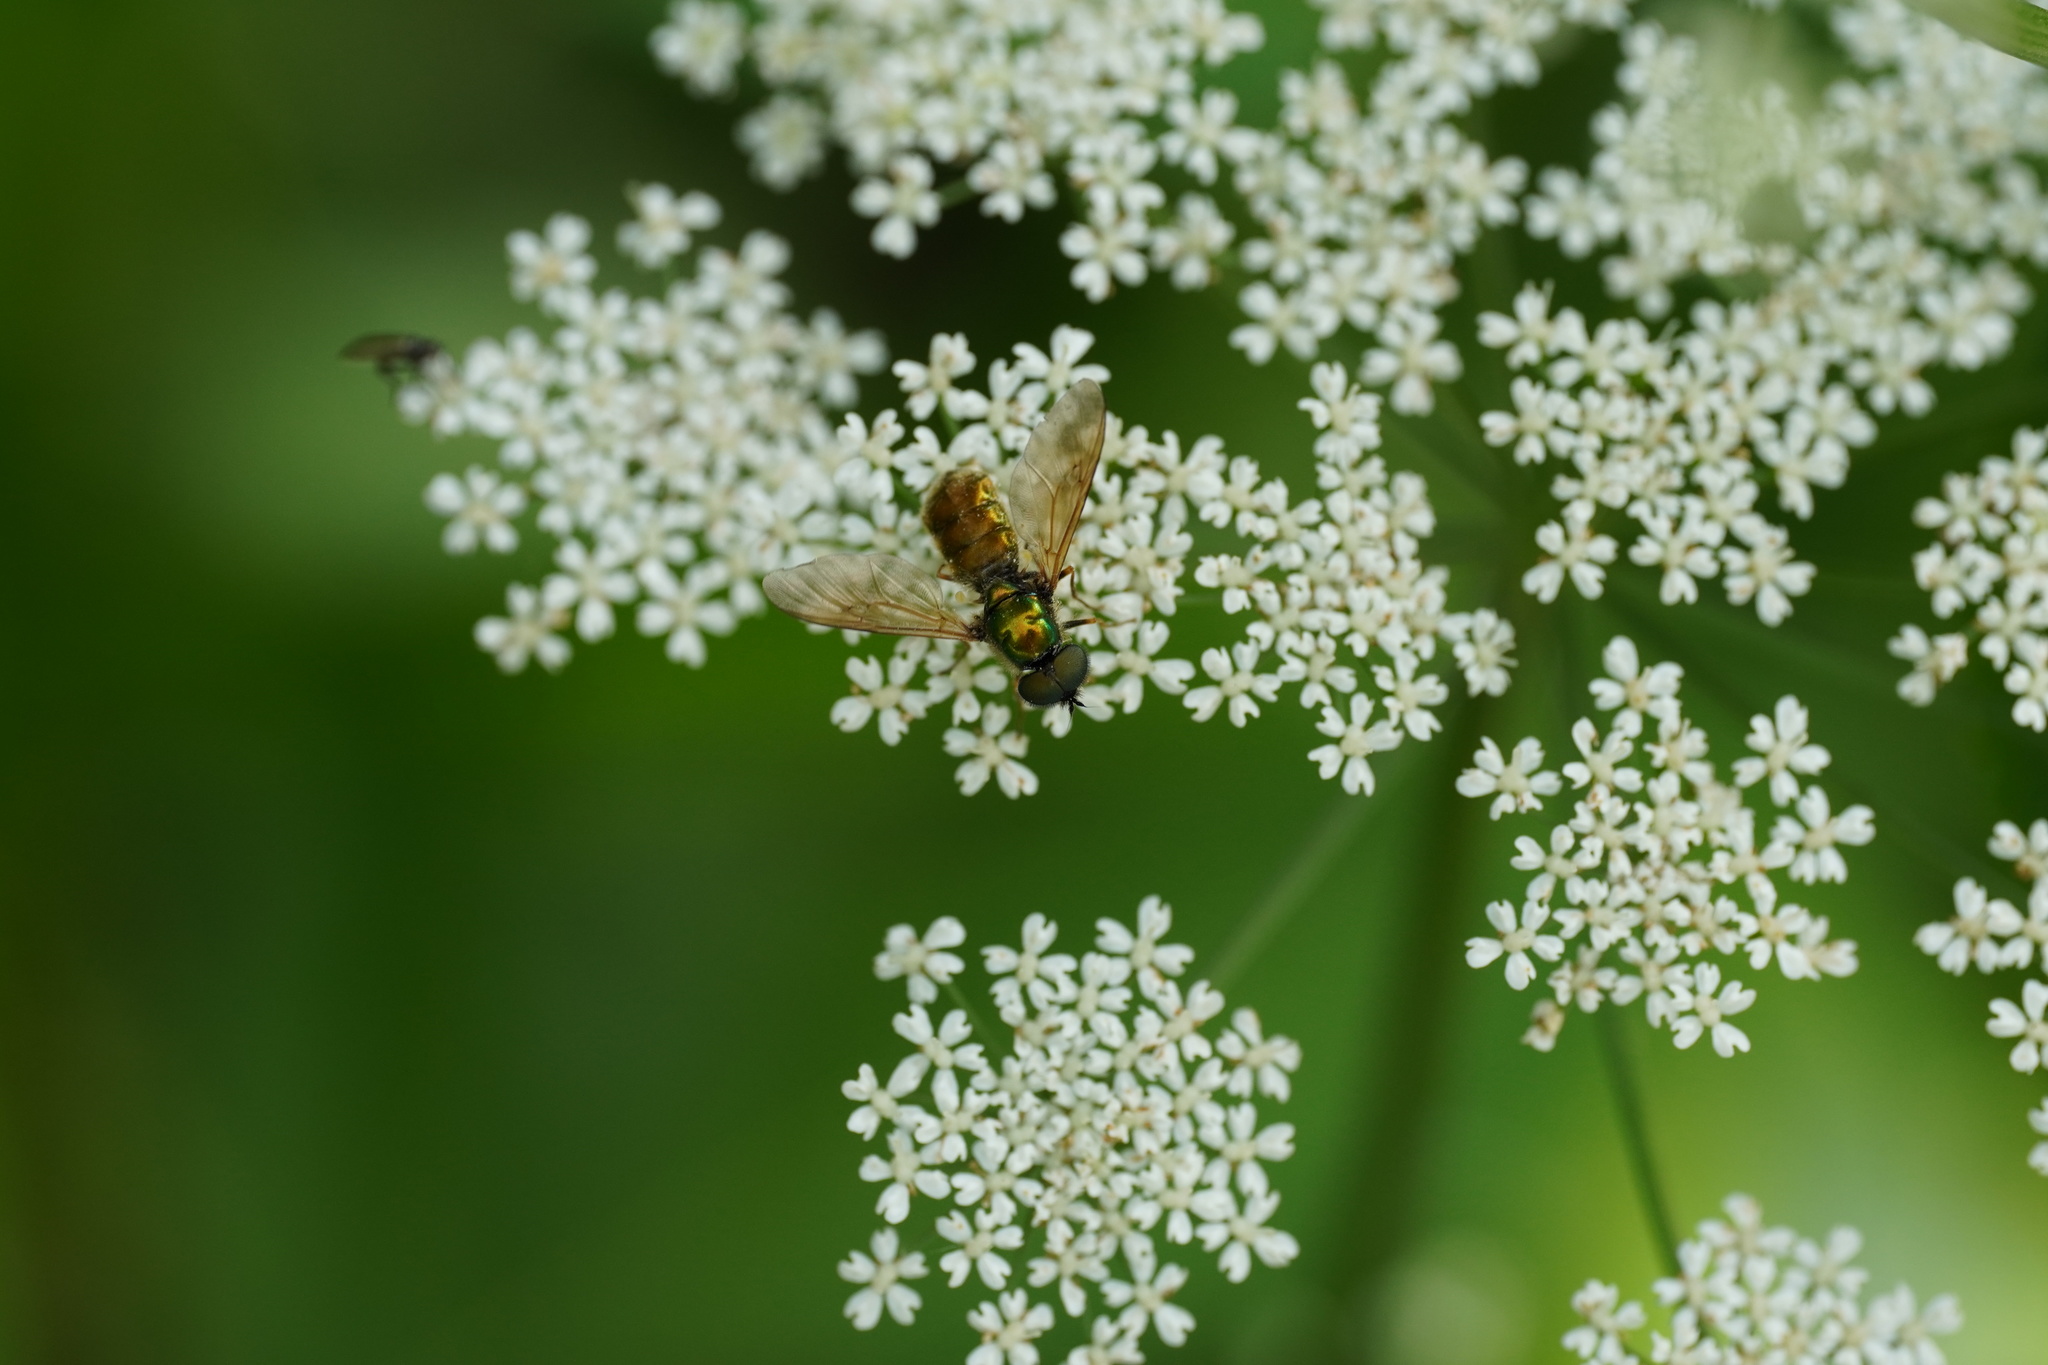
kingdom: Animalia
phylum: Arthropoda
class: Insecta
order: Diptera
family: Stratiomyidae
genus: Chloromyia
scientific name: Chloromyia formosa
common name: Soldier fly
